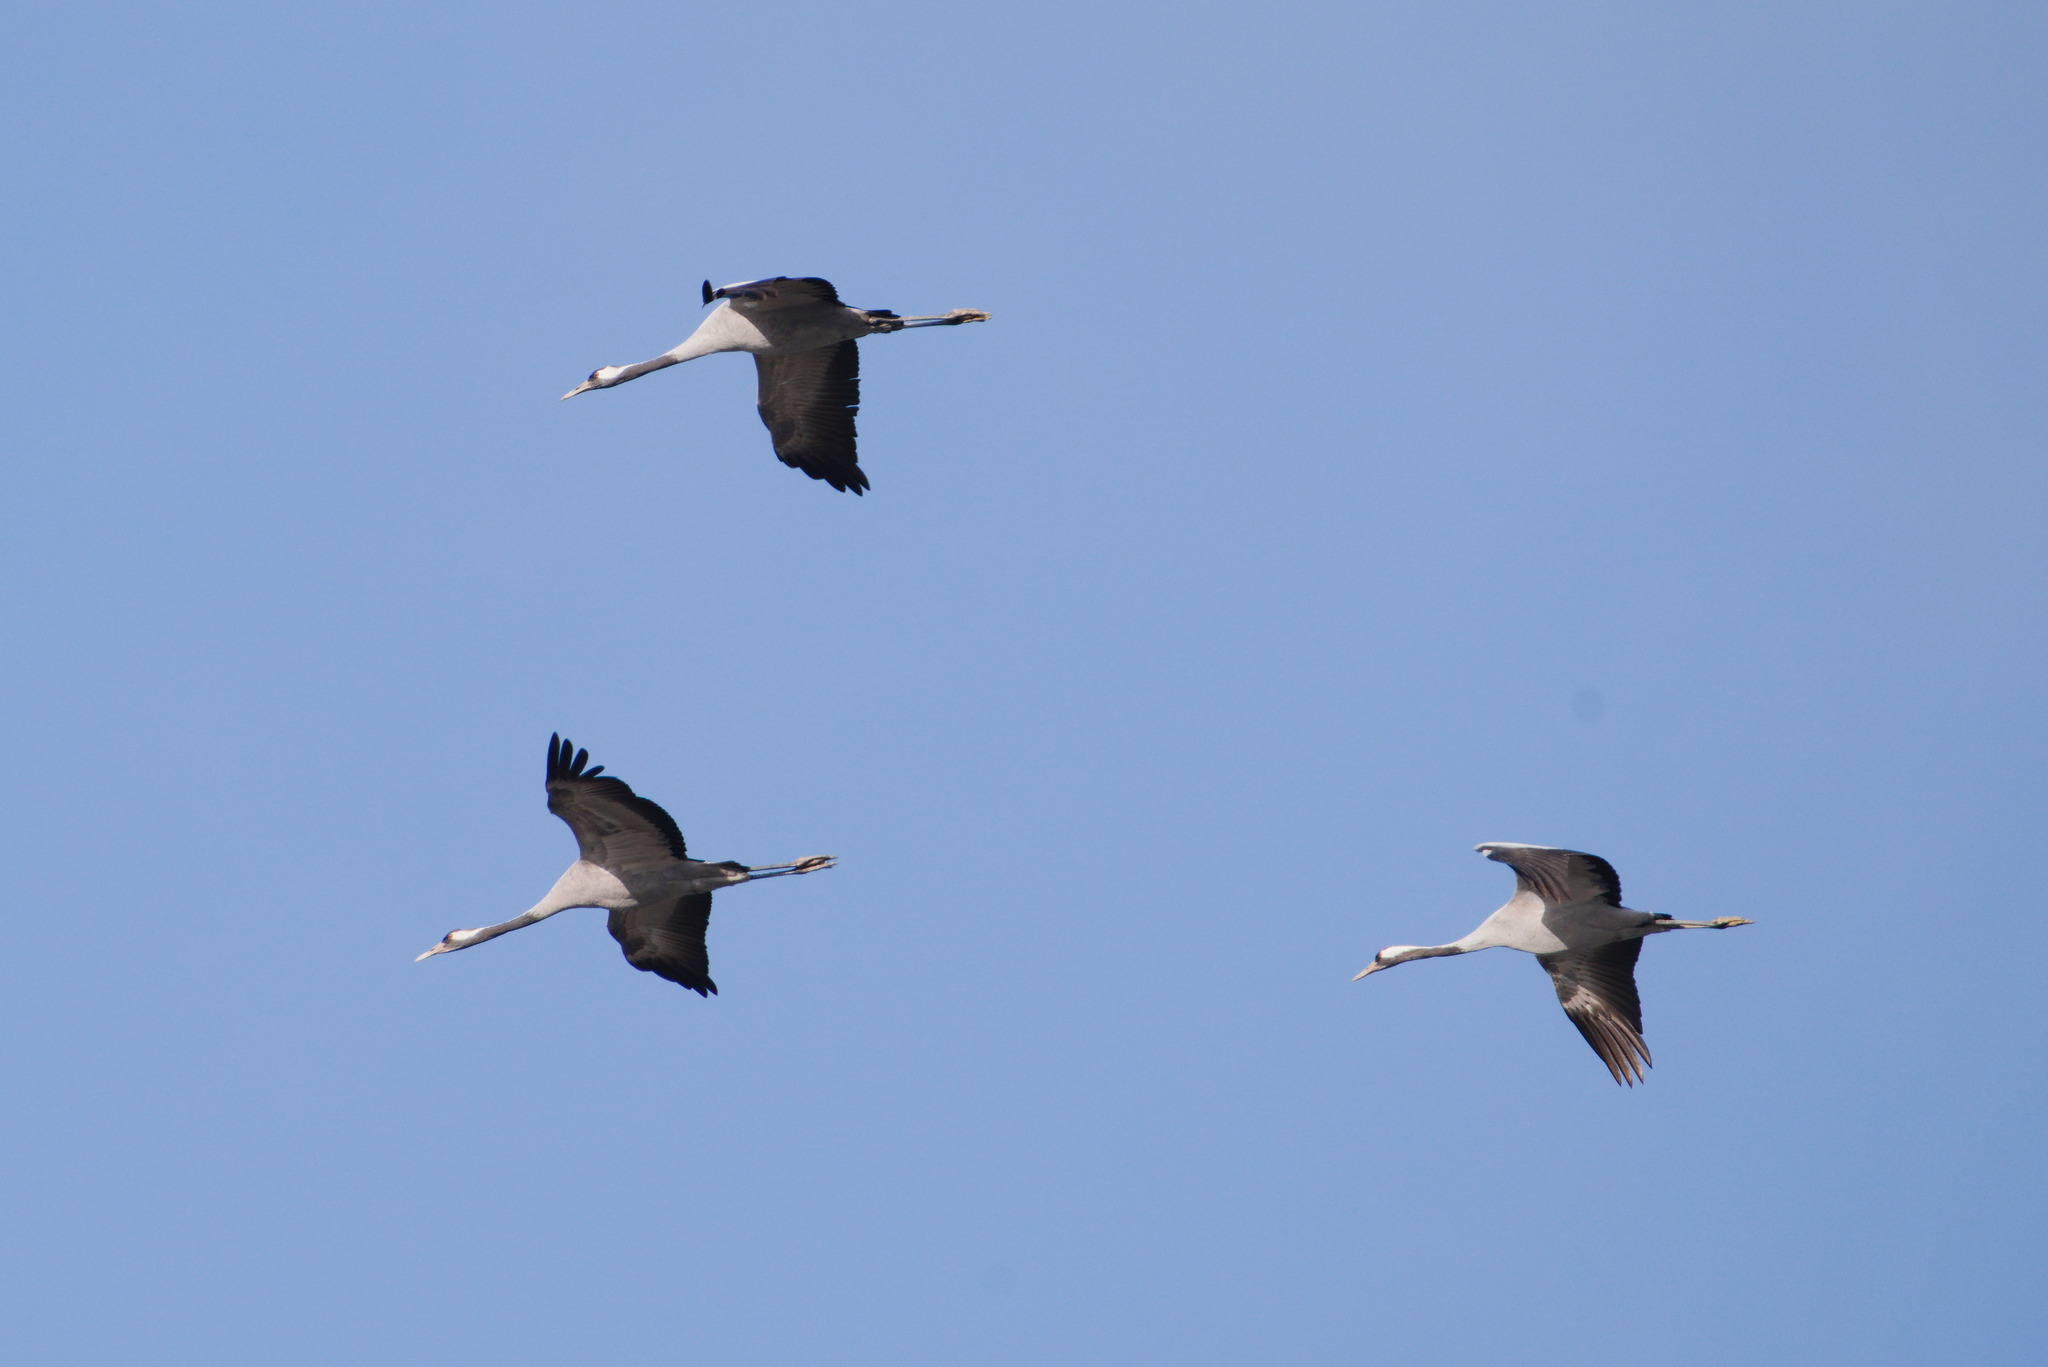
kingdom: Animalia
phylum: Chordata
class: Aves
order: Gruiformes
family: Gruidae
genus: Grus
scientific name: Grus grus
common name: Common crane
